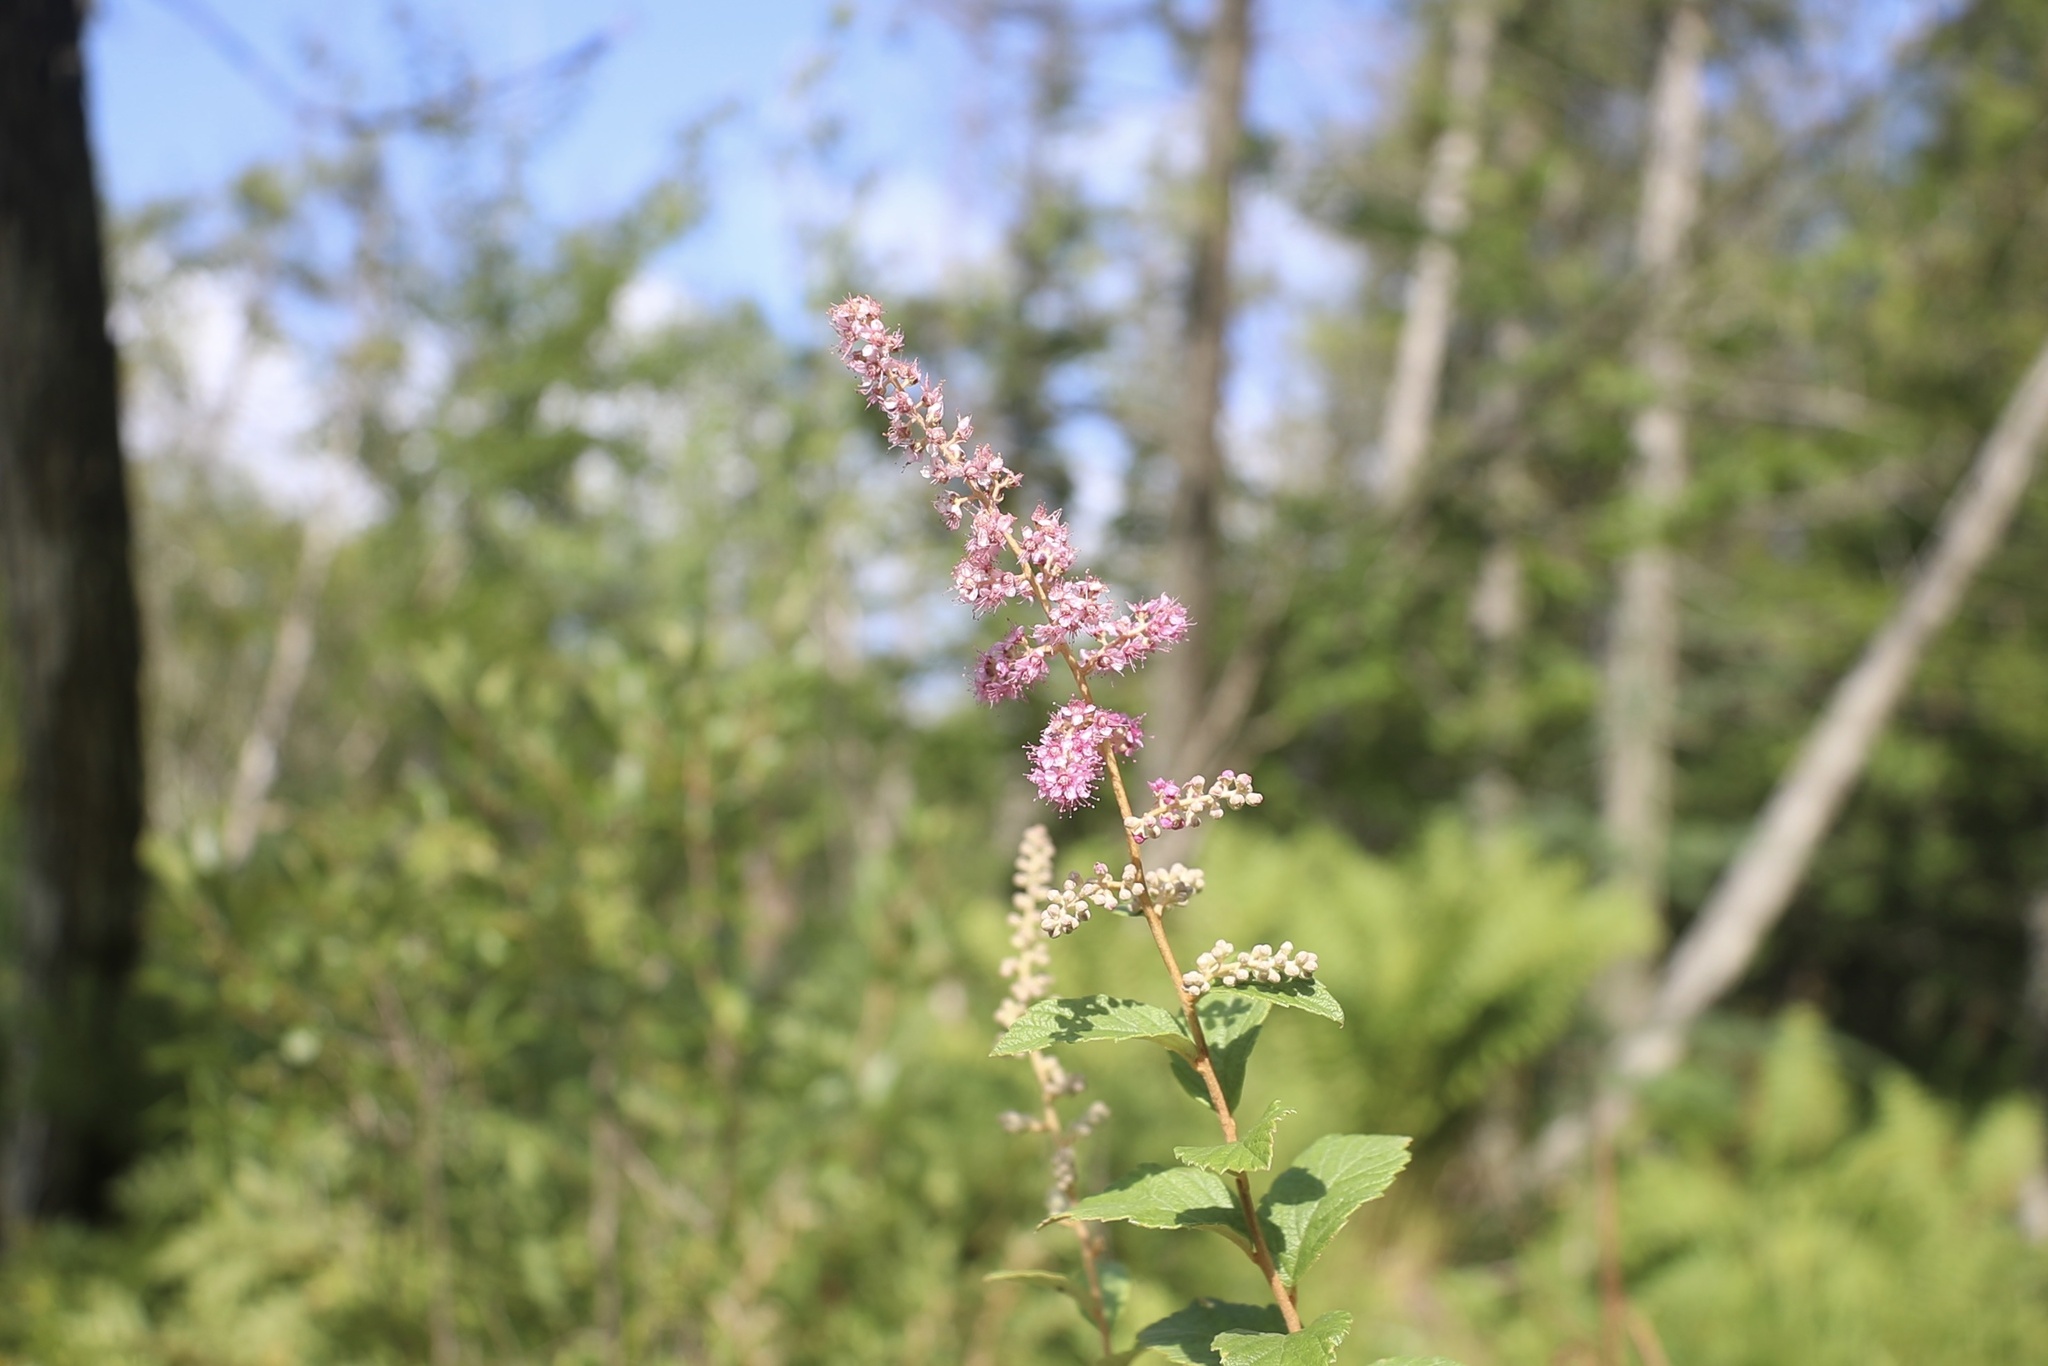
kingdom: Plantae
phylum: Tracheophyta
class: Magnoliopsida
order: Rosales
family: Rosaceae
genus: Spiraea
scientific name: Spiraea tomentosa
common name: Hardhack
